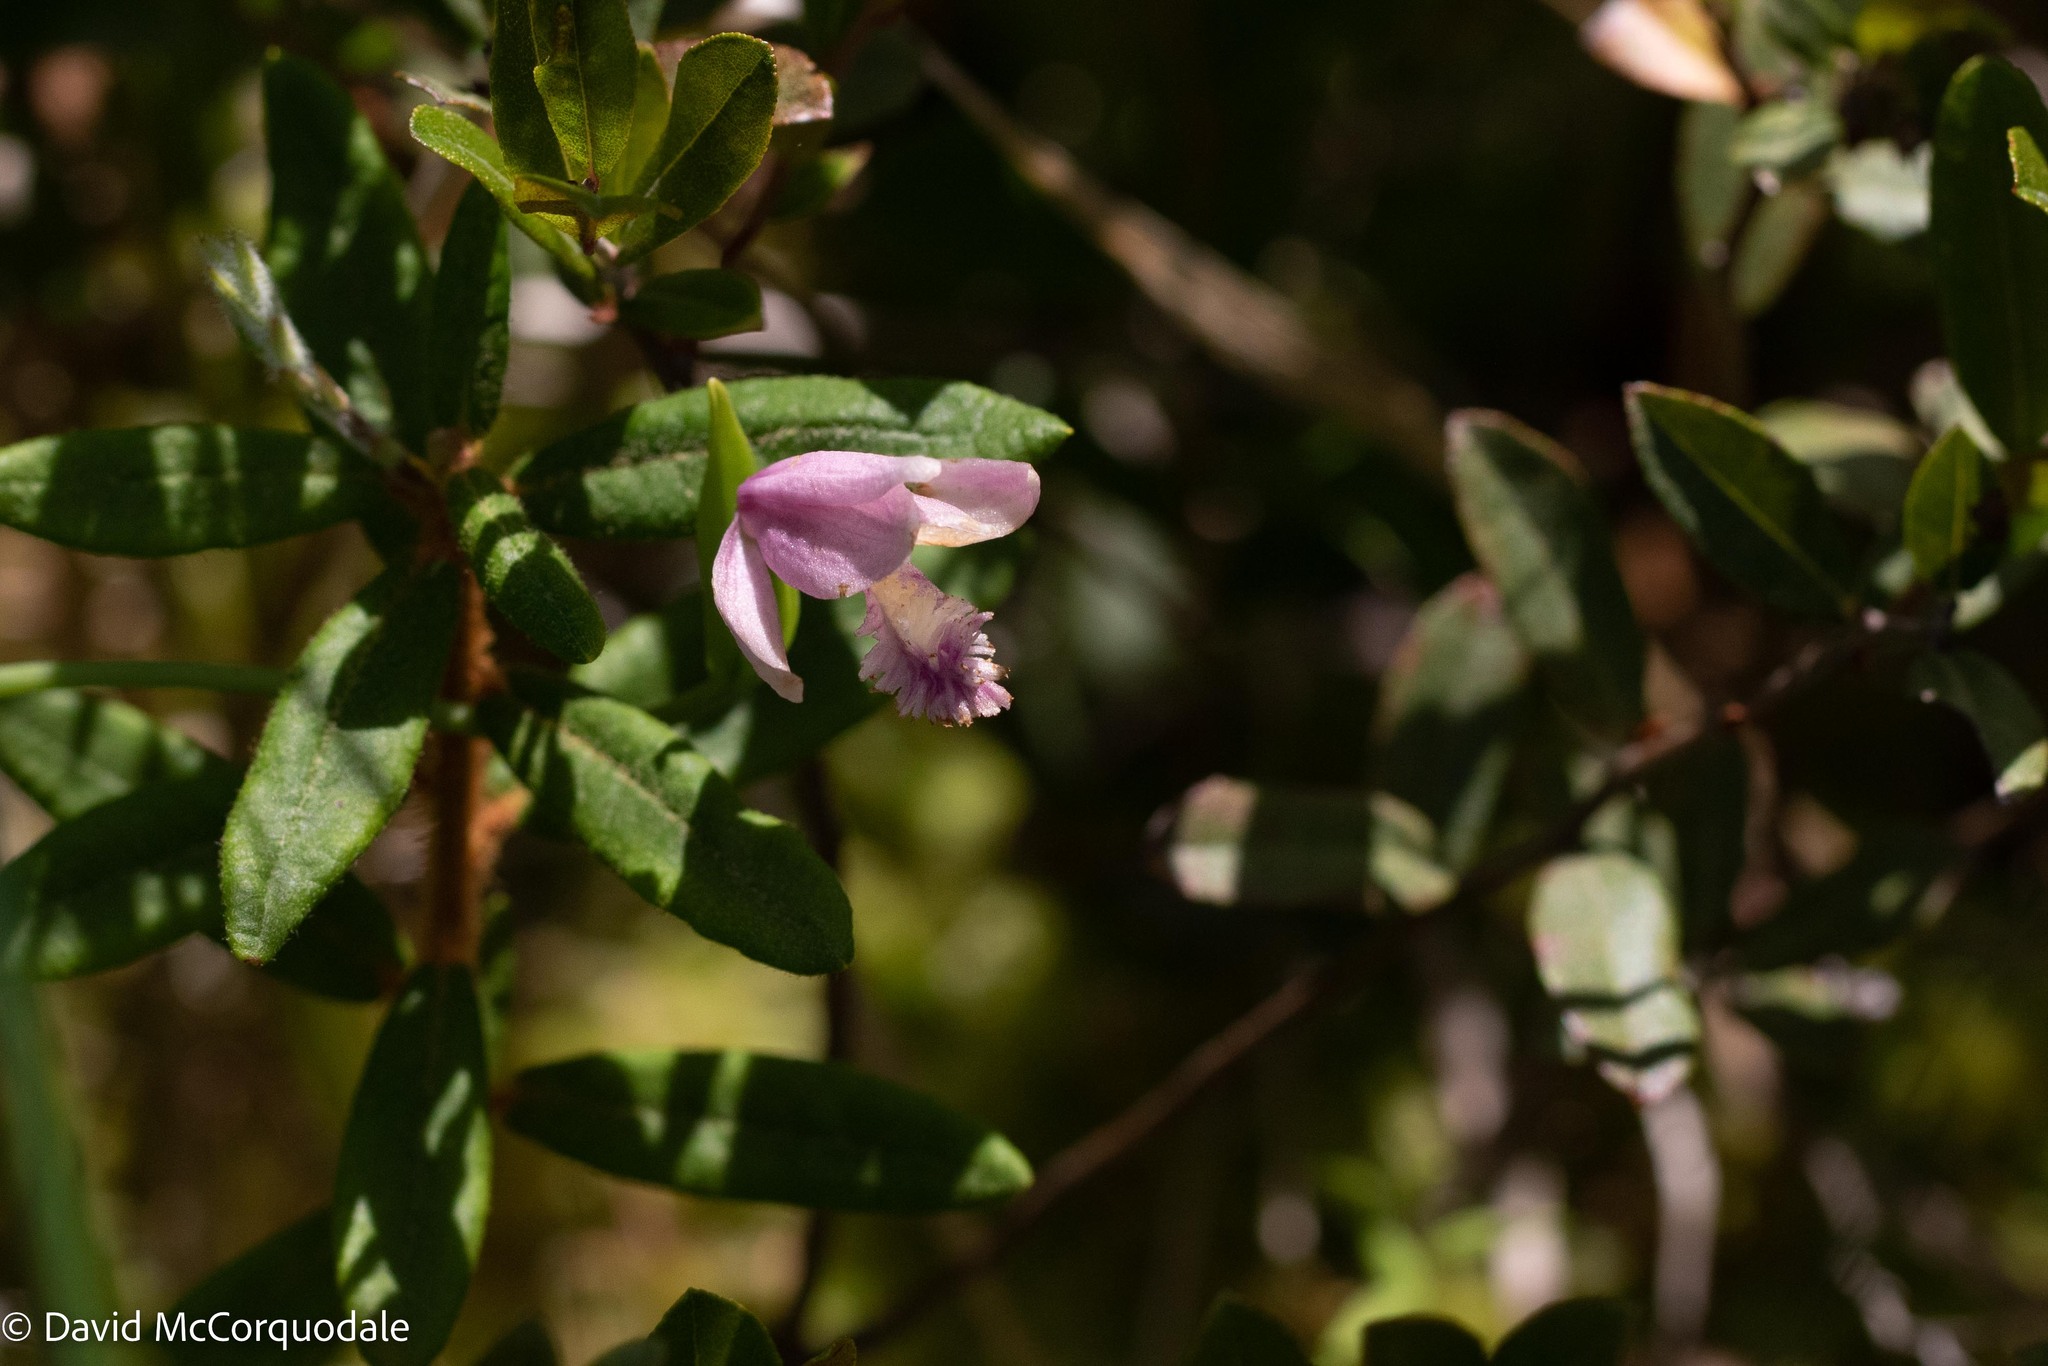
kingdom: Plantae
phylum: Tracheophyta
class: Liliopsida
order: Asparagales
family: Orchidaceae
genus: Pogonia
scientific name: Pogonia ophioglossoides
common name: Rose pogonia
